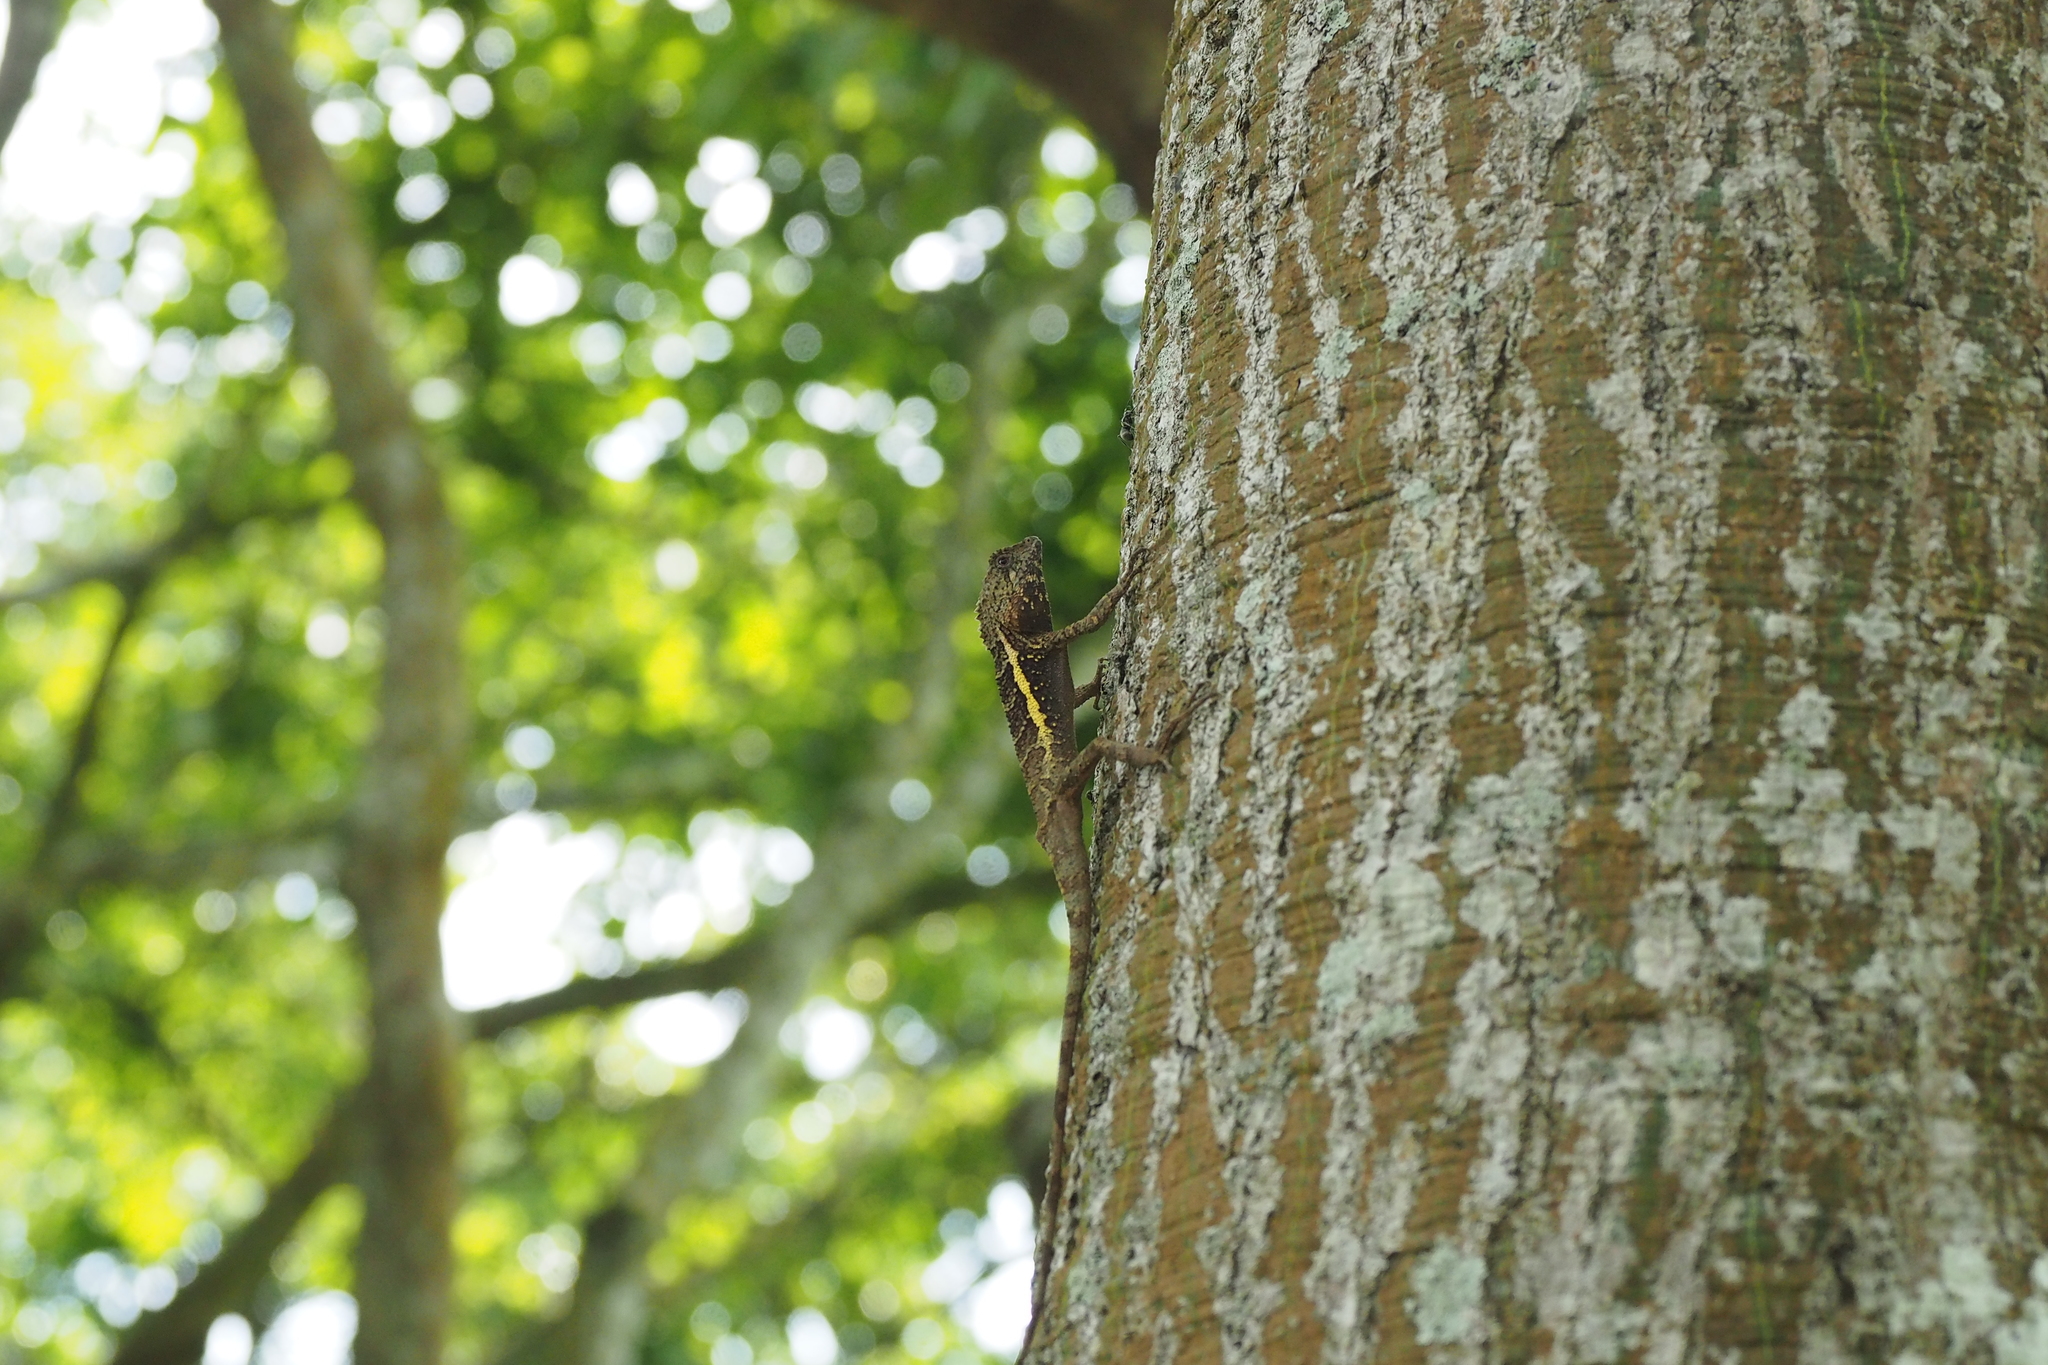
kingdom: Animalia
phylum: Chordata
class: Squamata
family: Agamidae
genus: Diploderma
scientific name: Diploderma swinhonis
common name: Taiwan japalure
